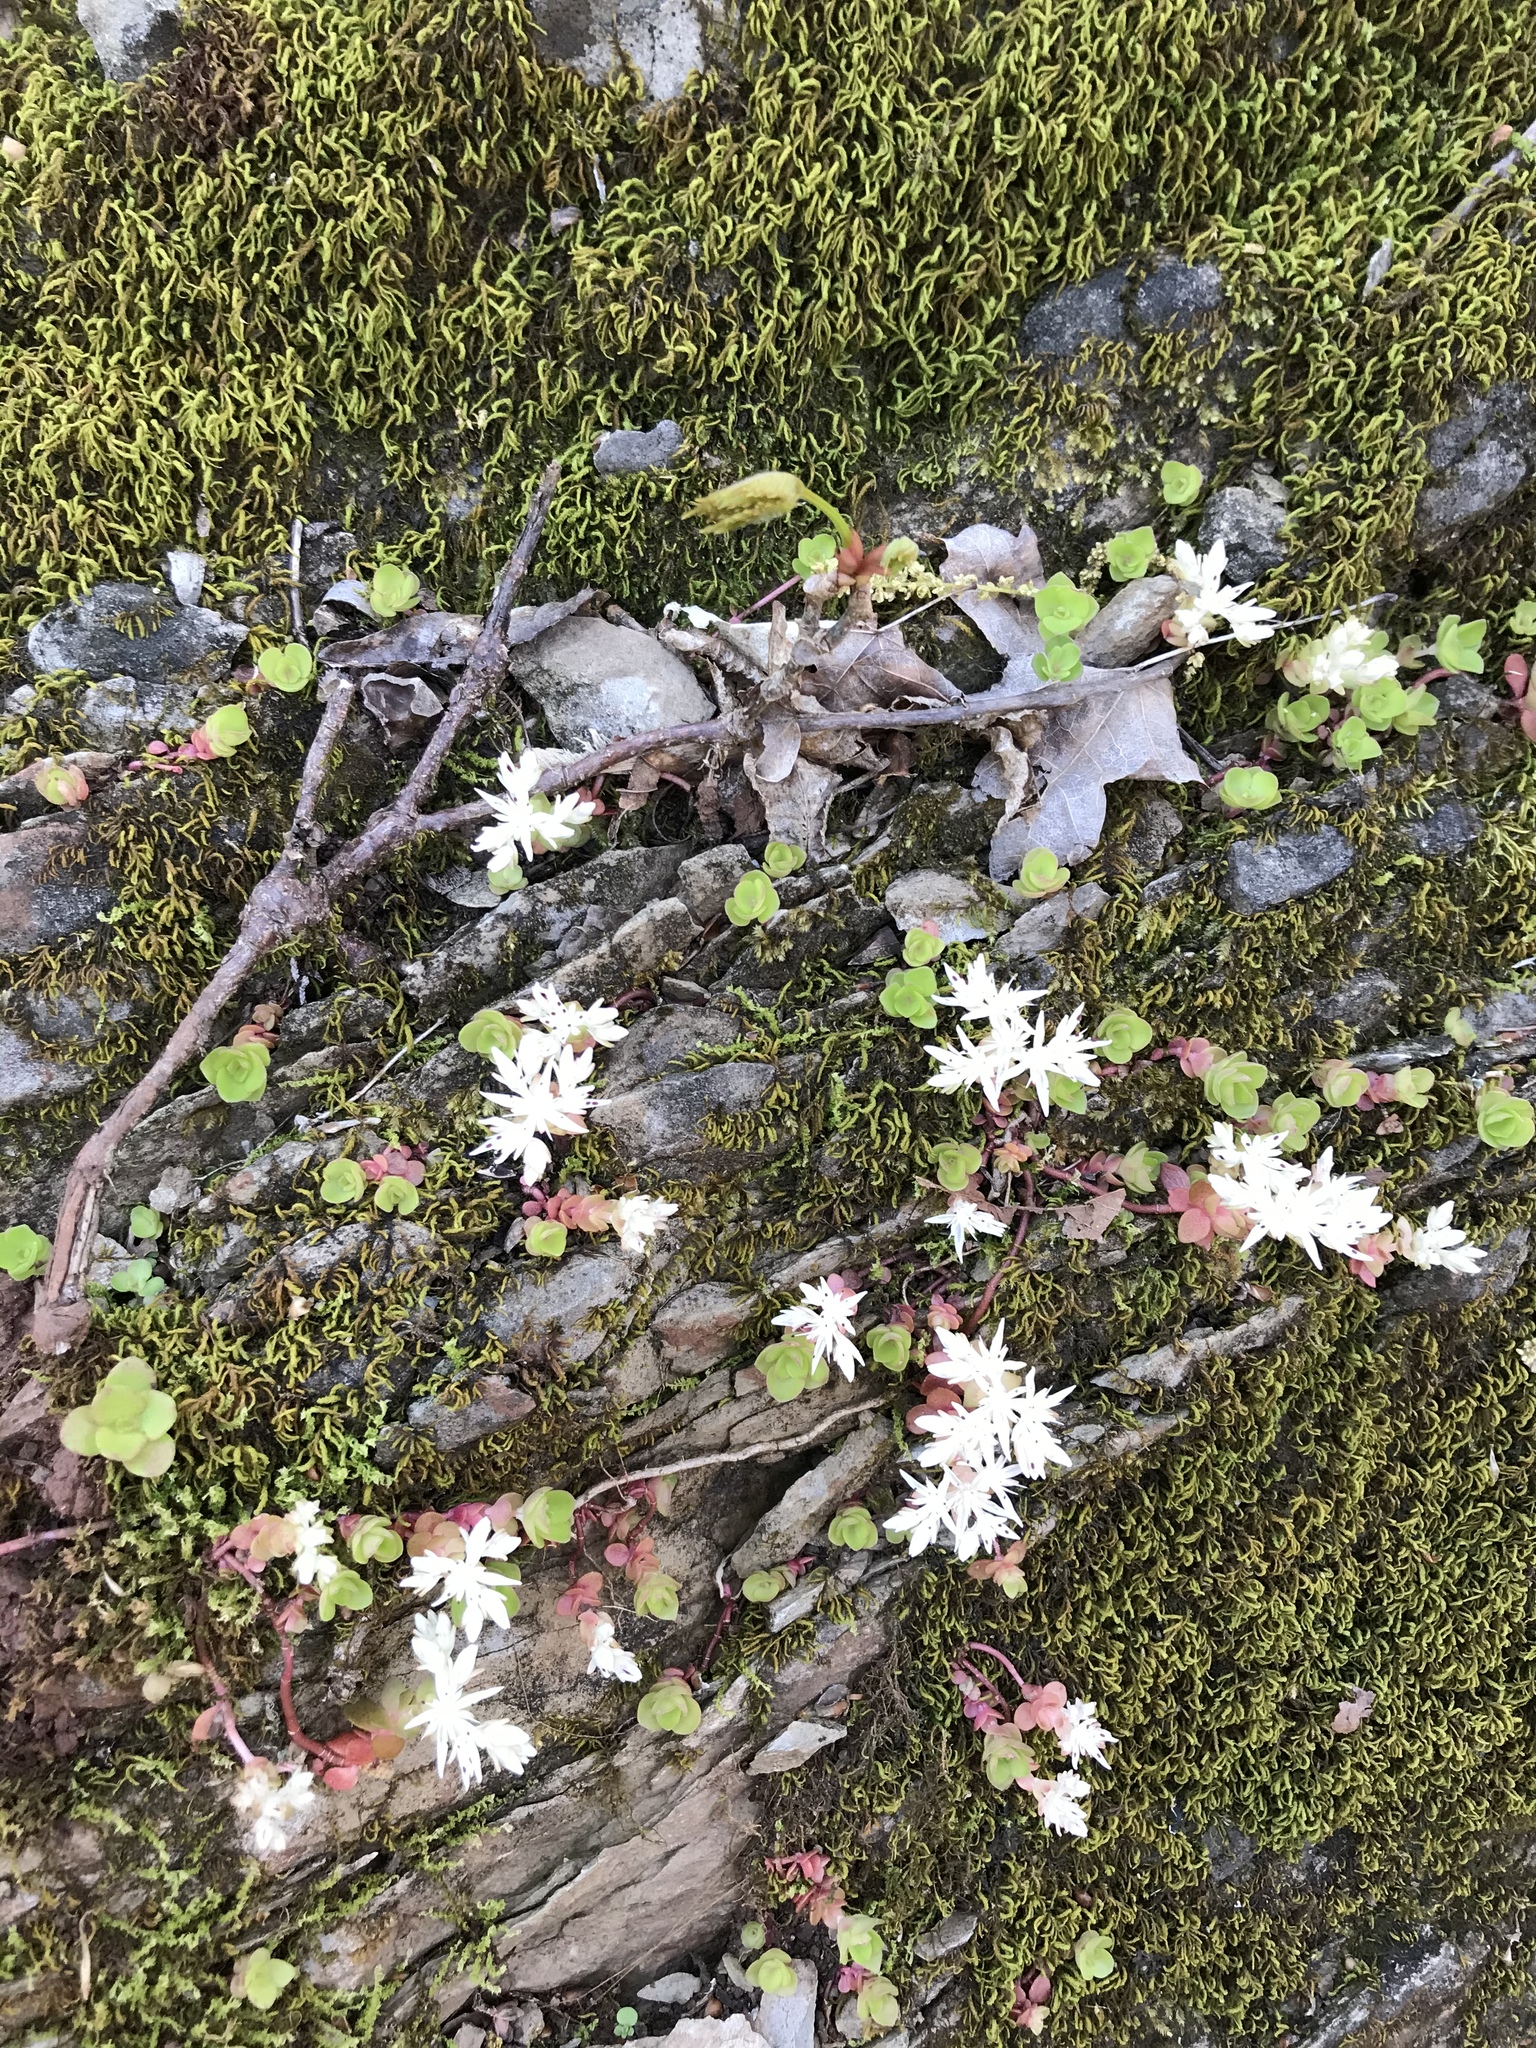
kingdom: Plantae
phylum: Tracheophyta
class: Magnoliopsida
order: Saxifragales
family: Crassulaceae
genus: Sedum
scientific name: Sedum ternatum
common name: Wild stonecrop
